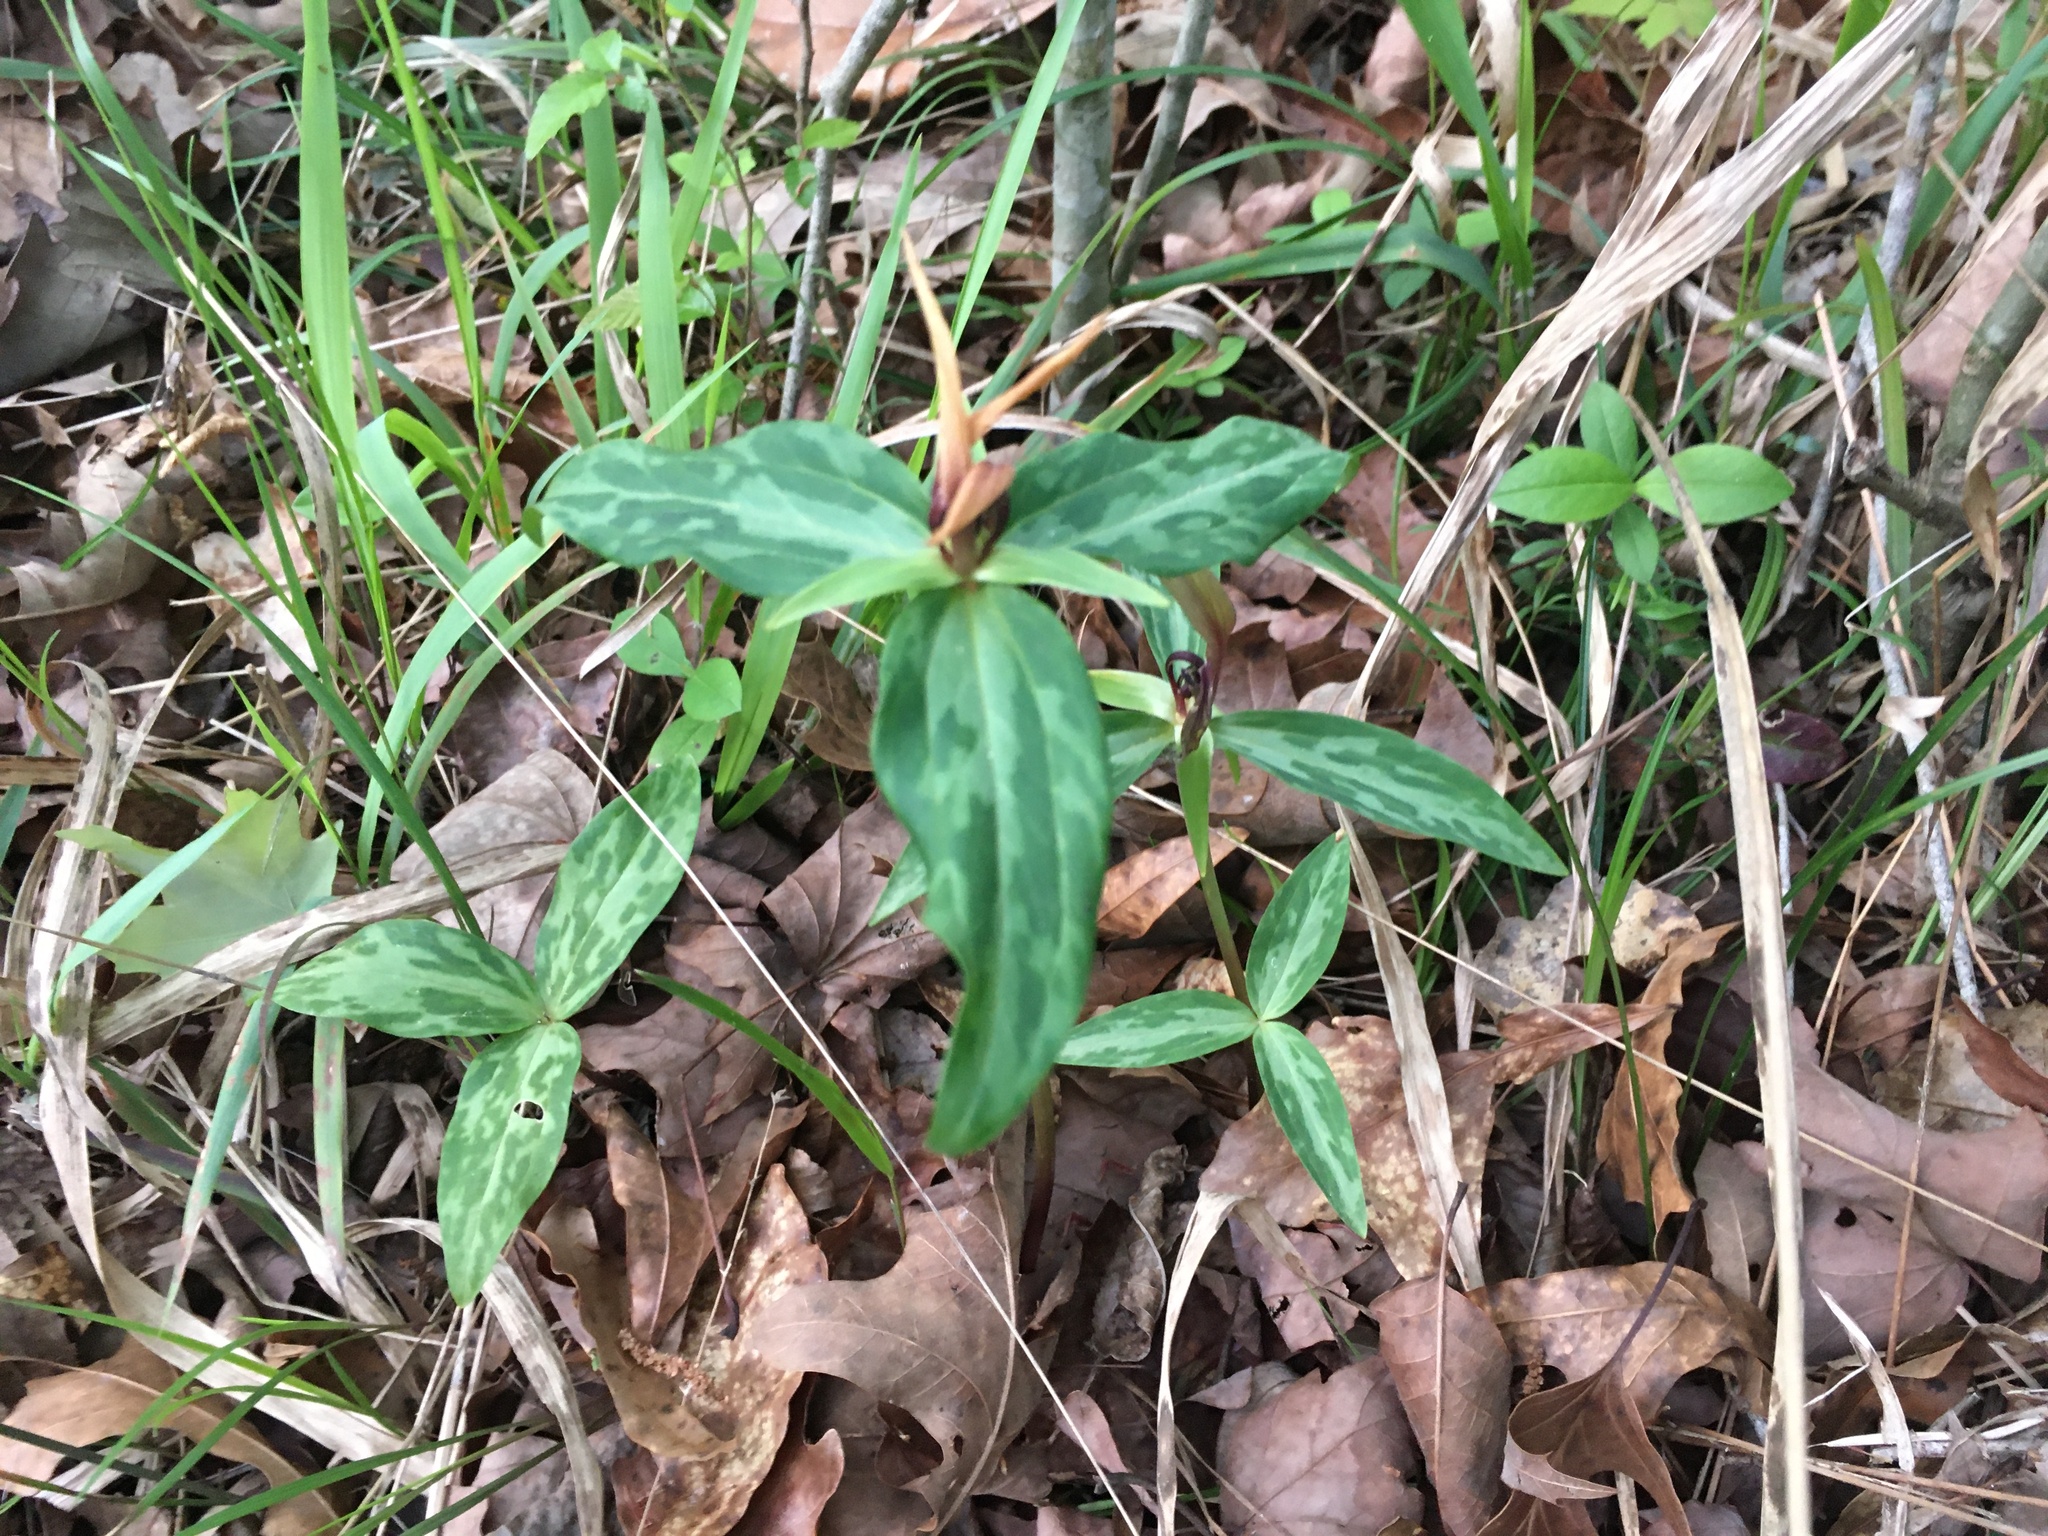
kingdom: Plantae
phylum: Tracheophyta
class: Liliopsida
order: Liliales
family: Melanthiaceae
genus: Trillium
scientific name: Trillium lancifolium
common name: Lance-leaved trillium
